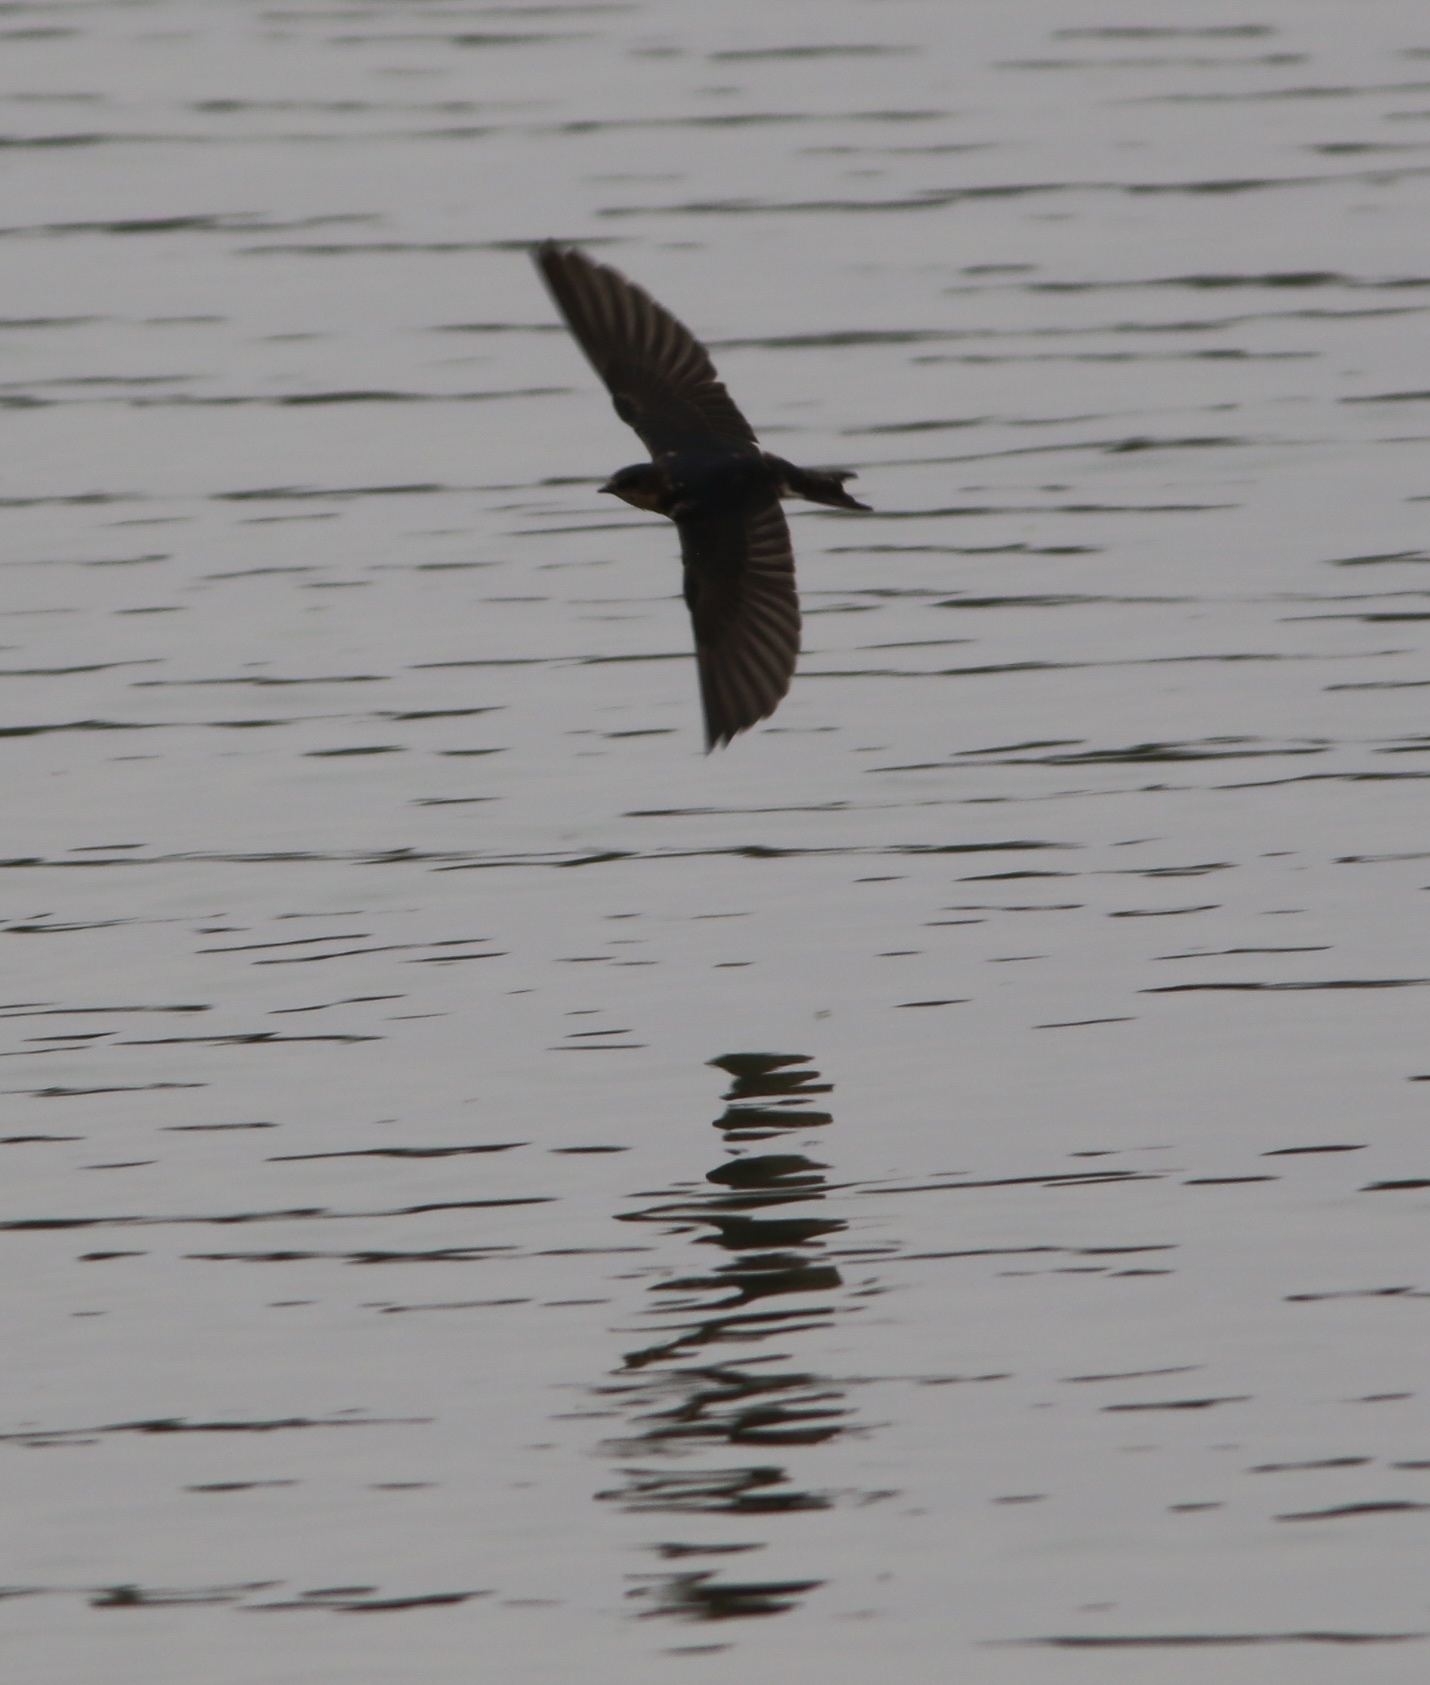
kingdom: Animalia
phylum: Chordata
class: Aves
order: Passeriformes
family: Hirundinidae
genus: Hirundo
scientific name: Hirundo rustica
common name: Barn swallow
